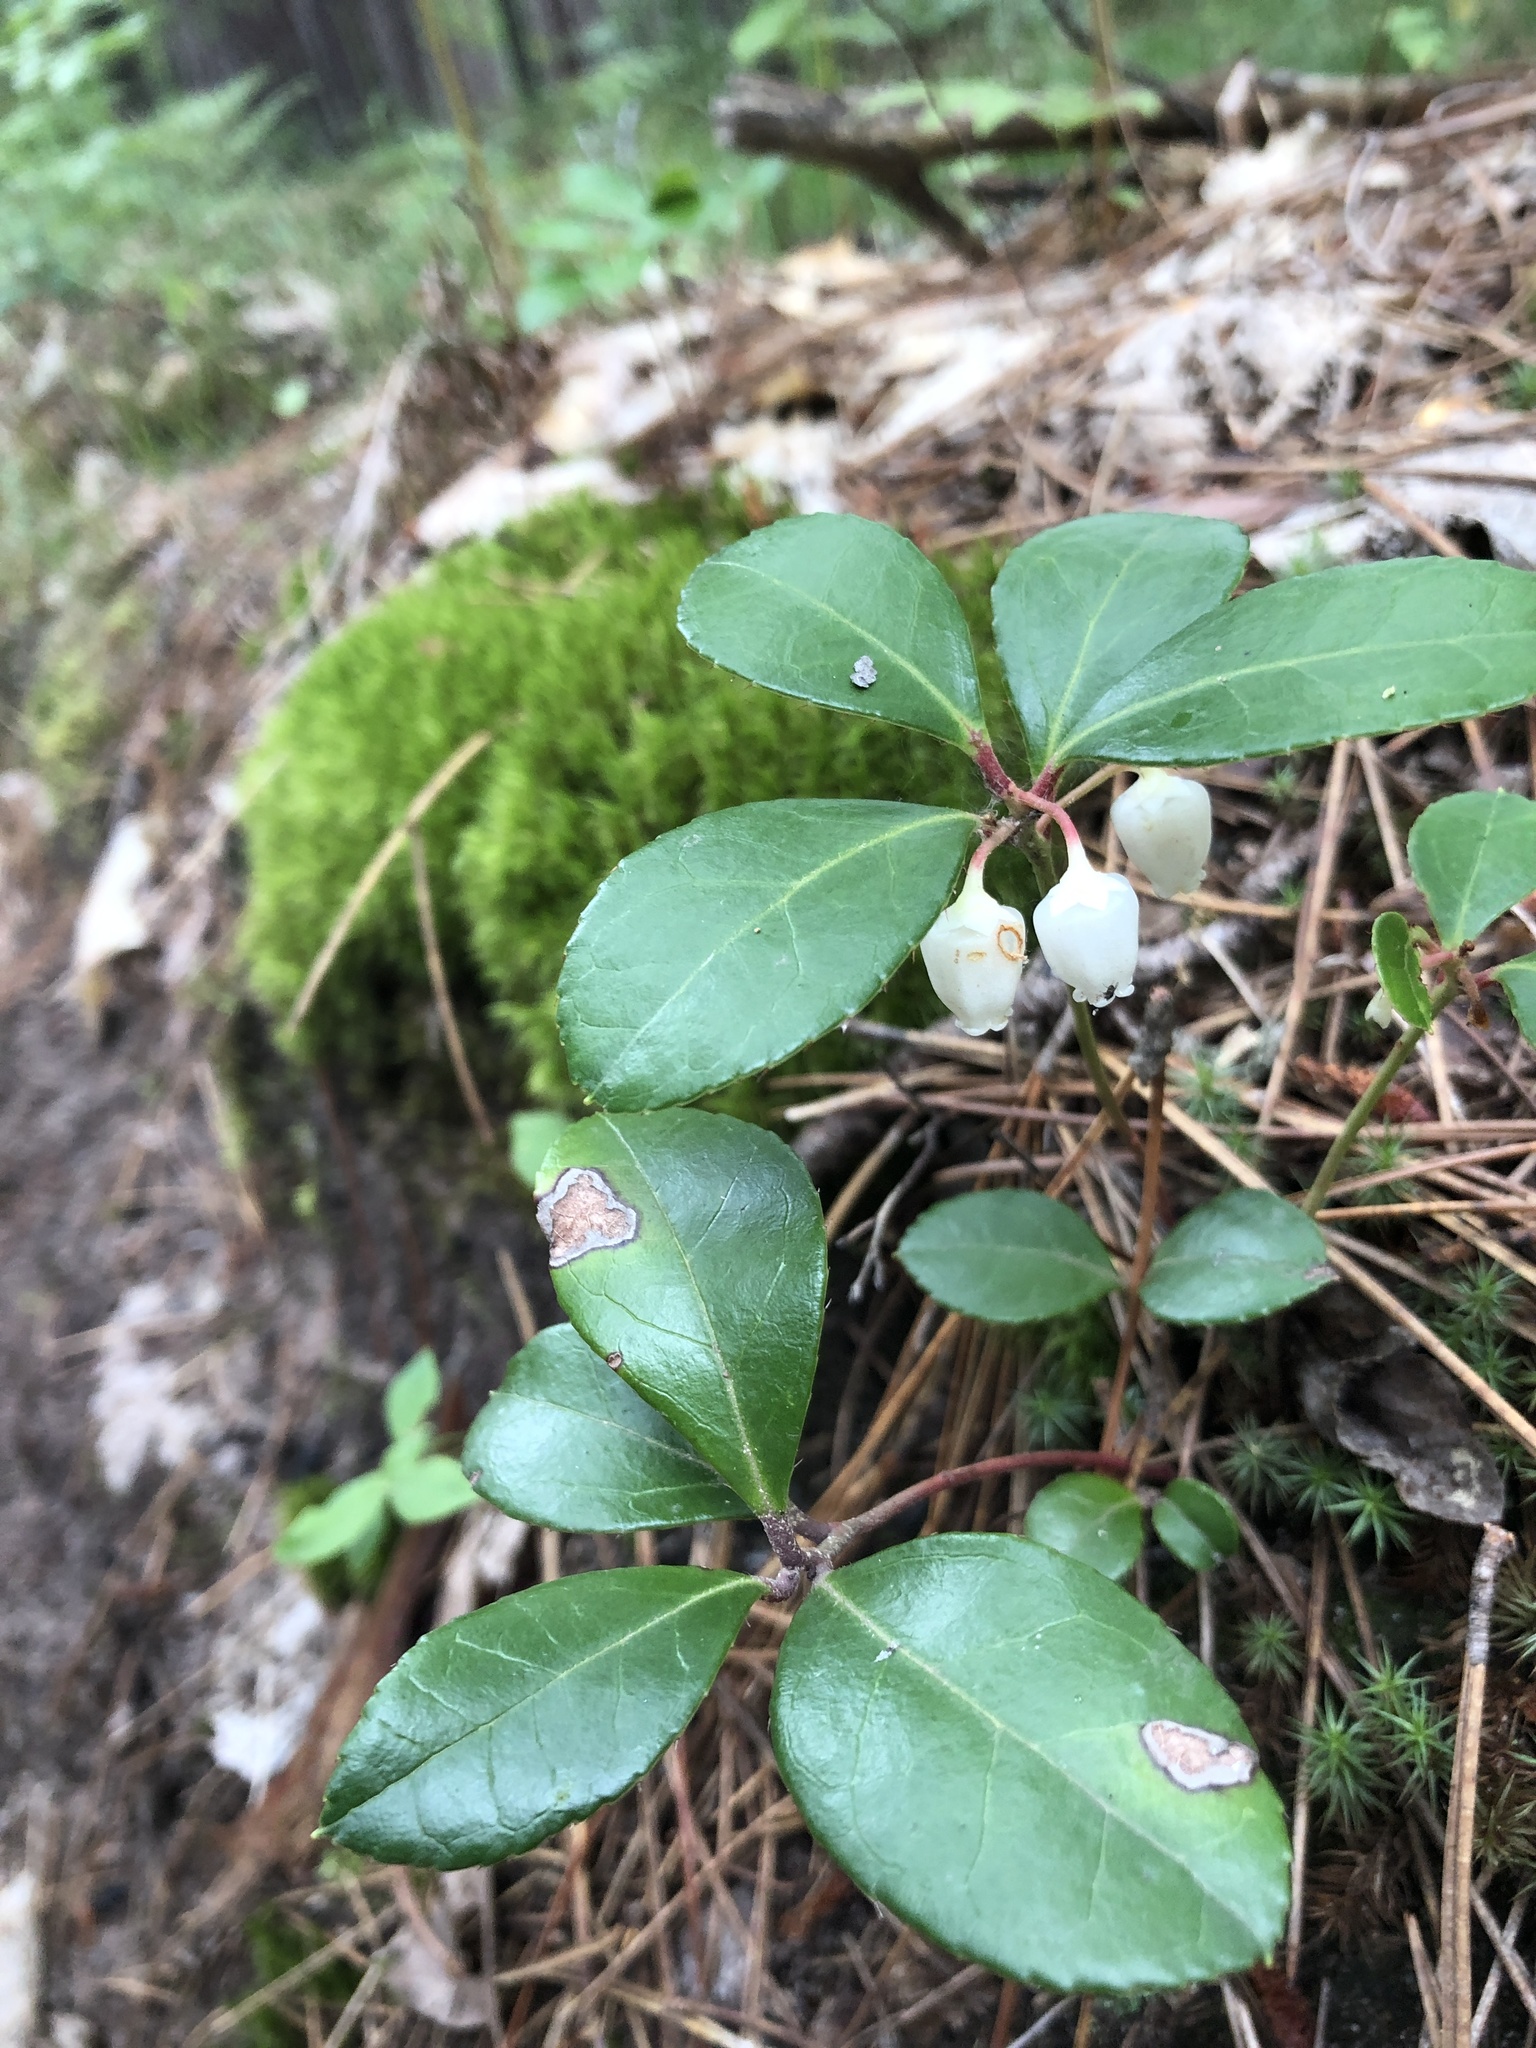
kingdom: Plantae
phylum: Tracheophyta
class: Magnoliopsida
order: Ericales
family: Ericaceae
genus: Gaultheria
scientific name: Gaultheria procumbens
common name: Checkerberry
